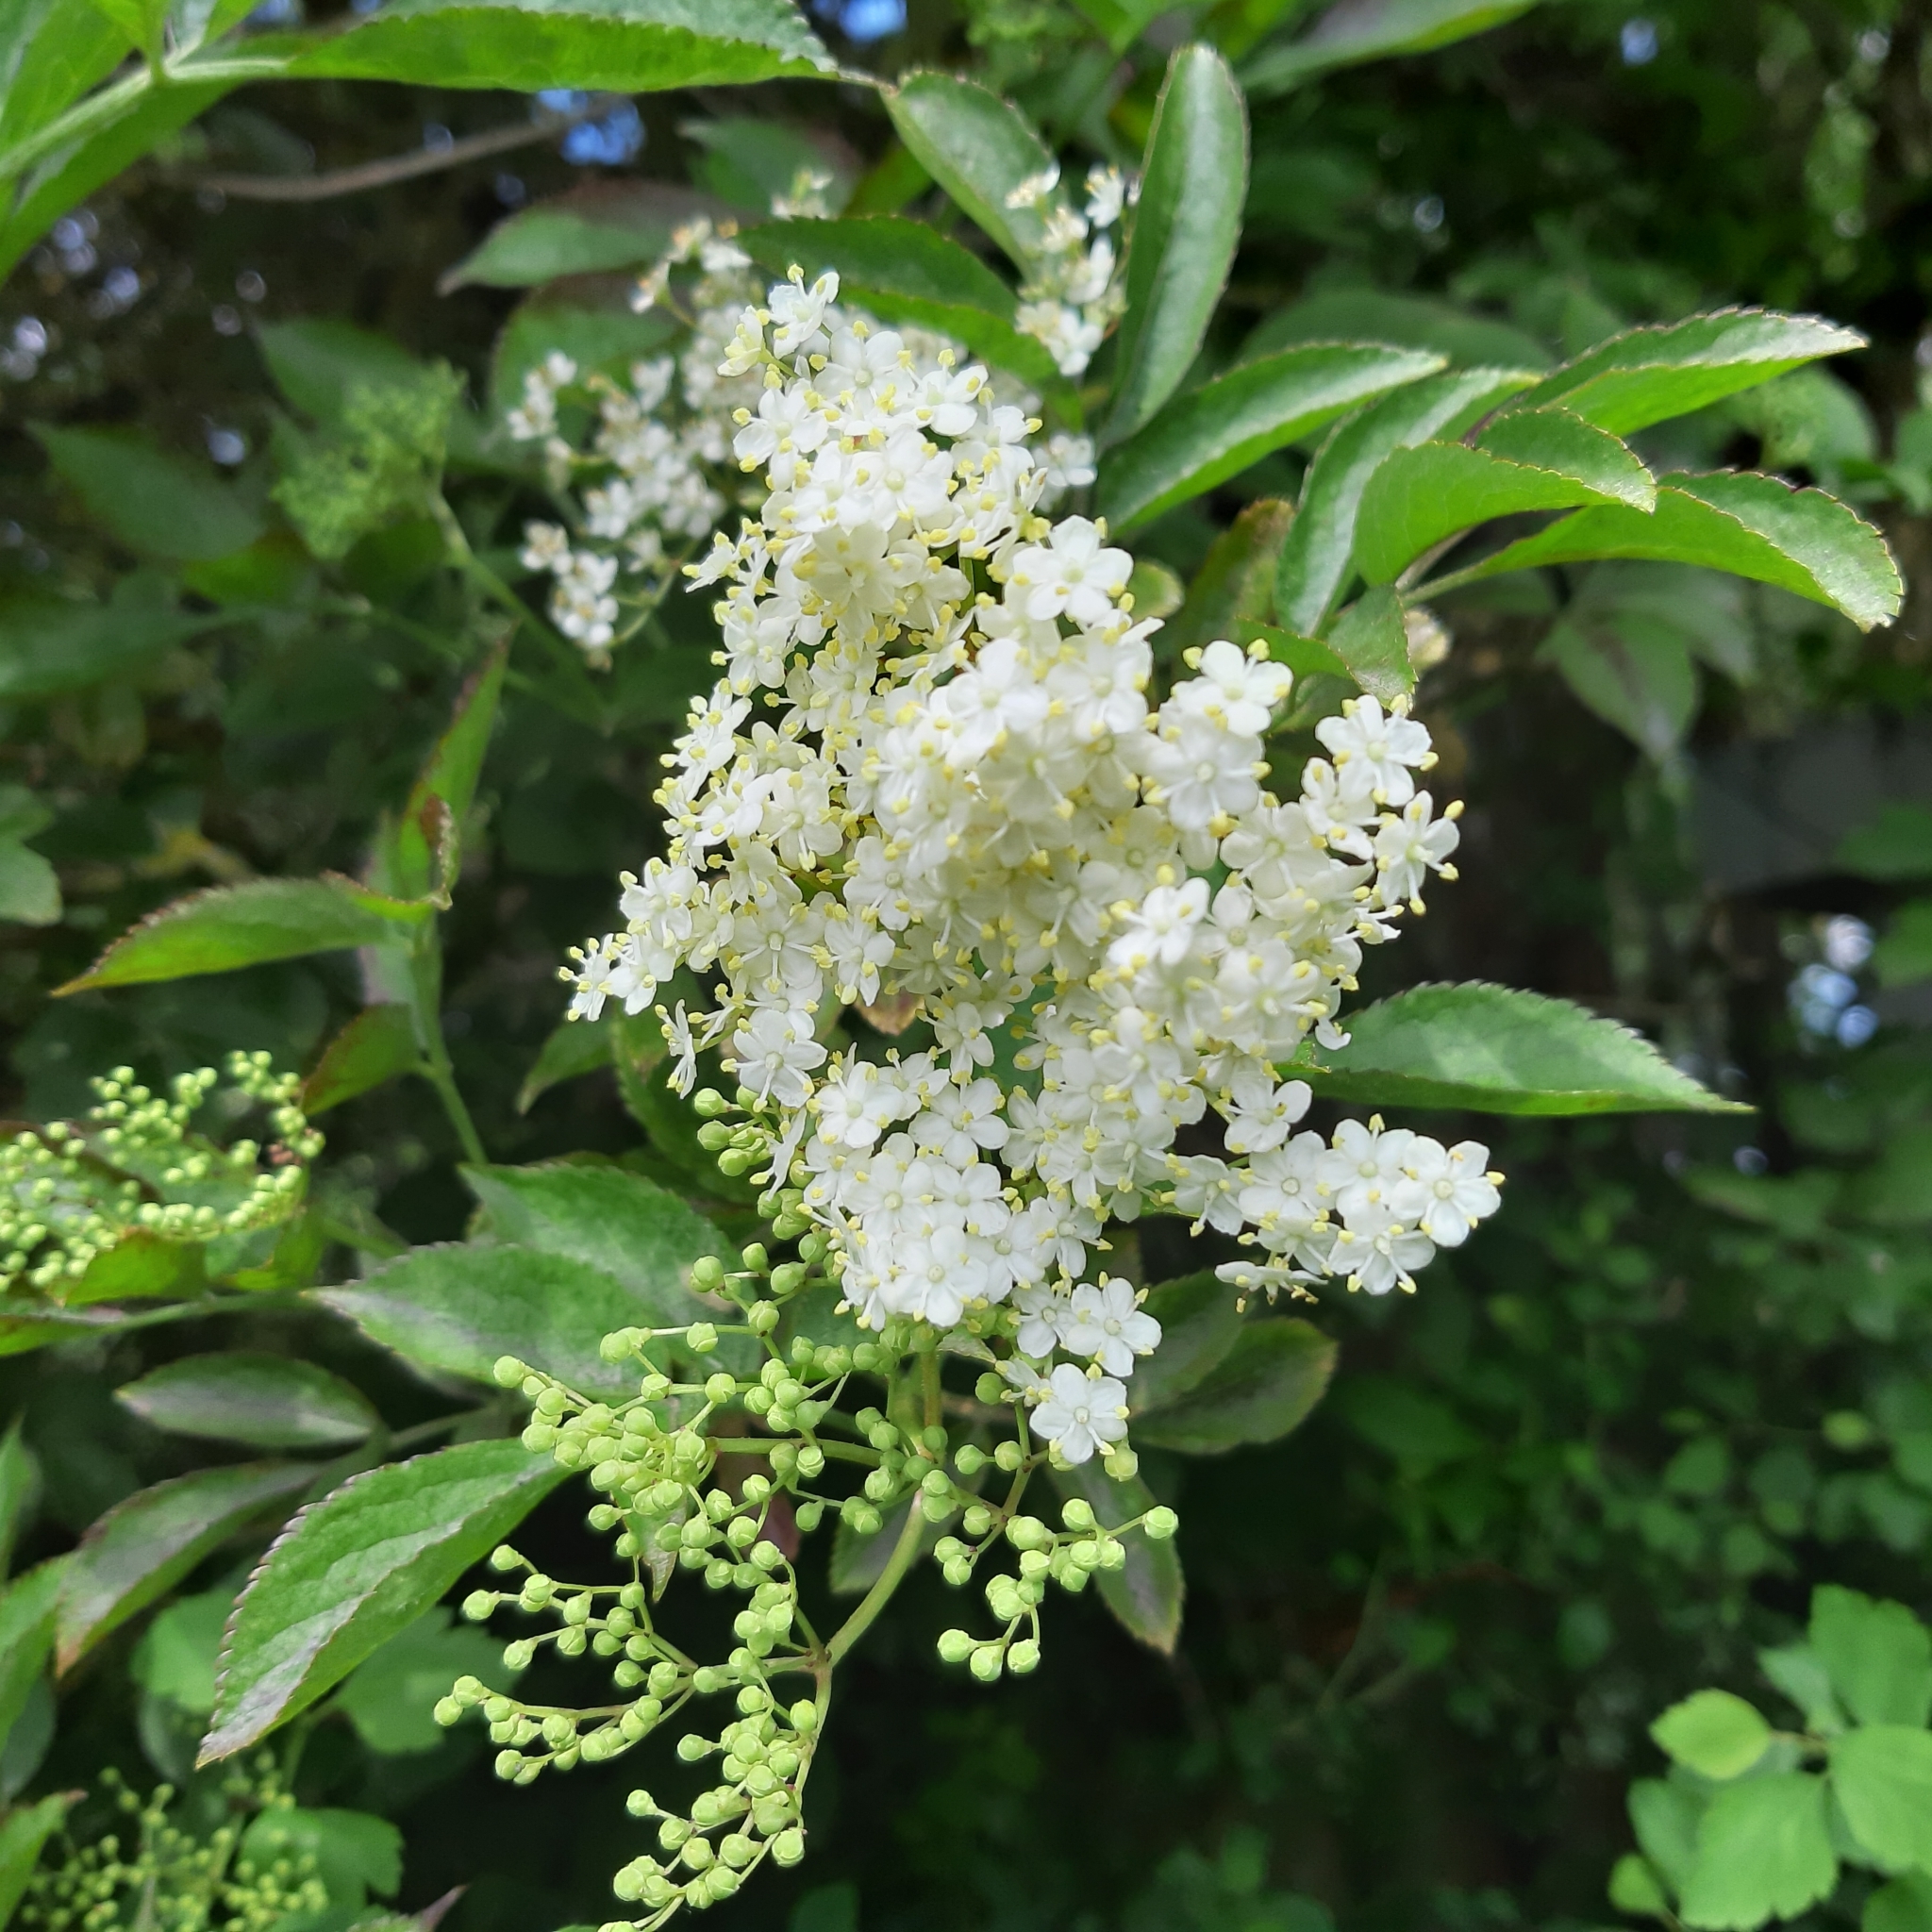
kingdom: Plantae
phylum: Tracheophyta
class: Magnoliopsida
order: Dipsacales
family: Viburnaceae
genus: Sambucus
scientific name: Sambucus nigra
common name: Elder
